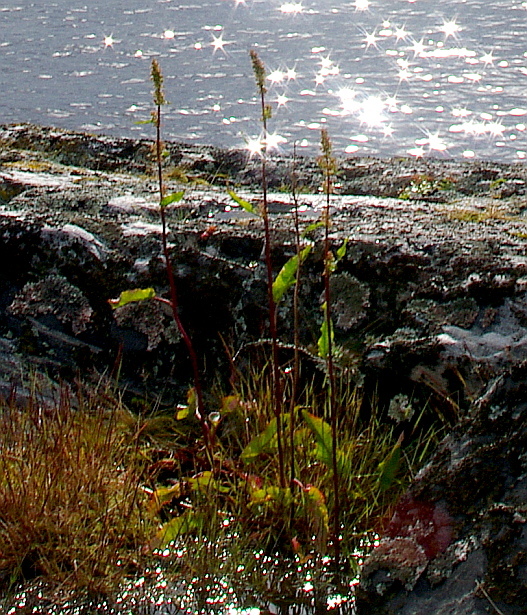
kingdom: Plantae
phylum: Tracheophyta
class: Magnoliopsida
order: Caryophyllales
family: Polygonaceae
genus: Rumex
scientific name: Rumex aquaticus
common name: Scottish dock
